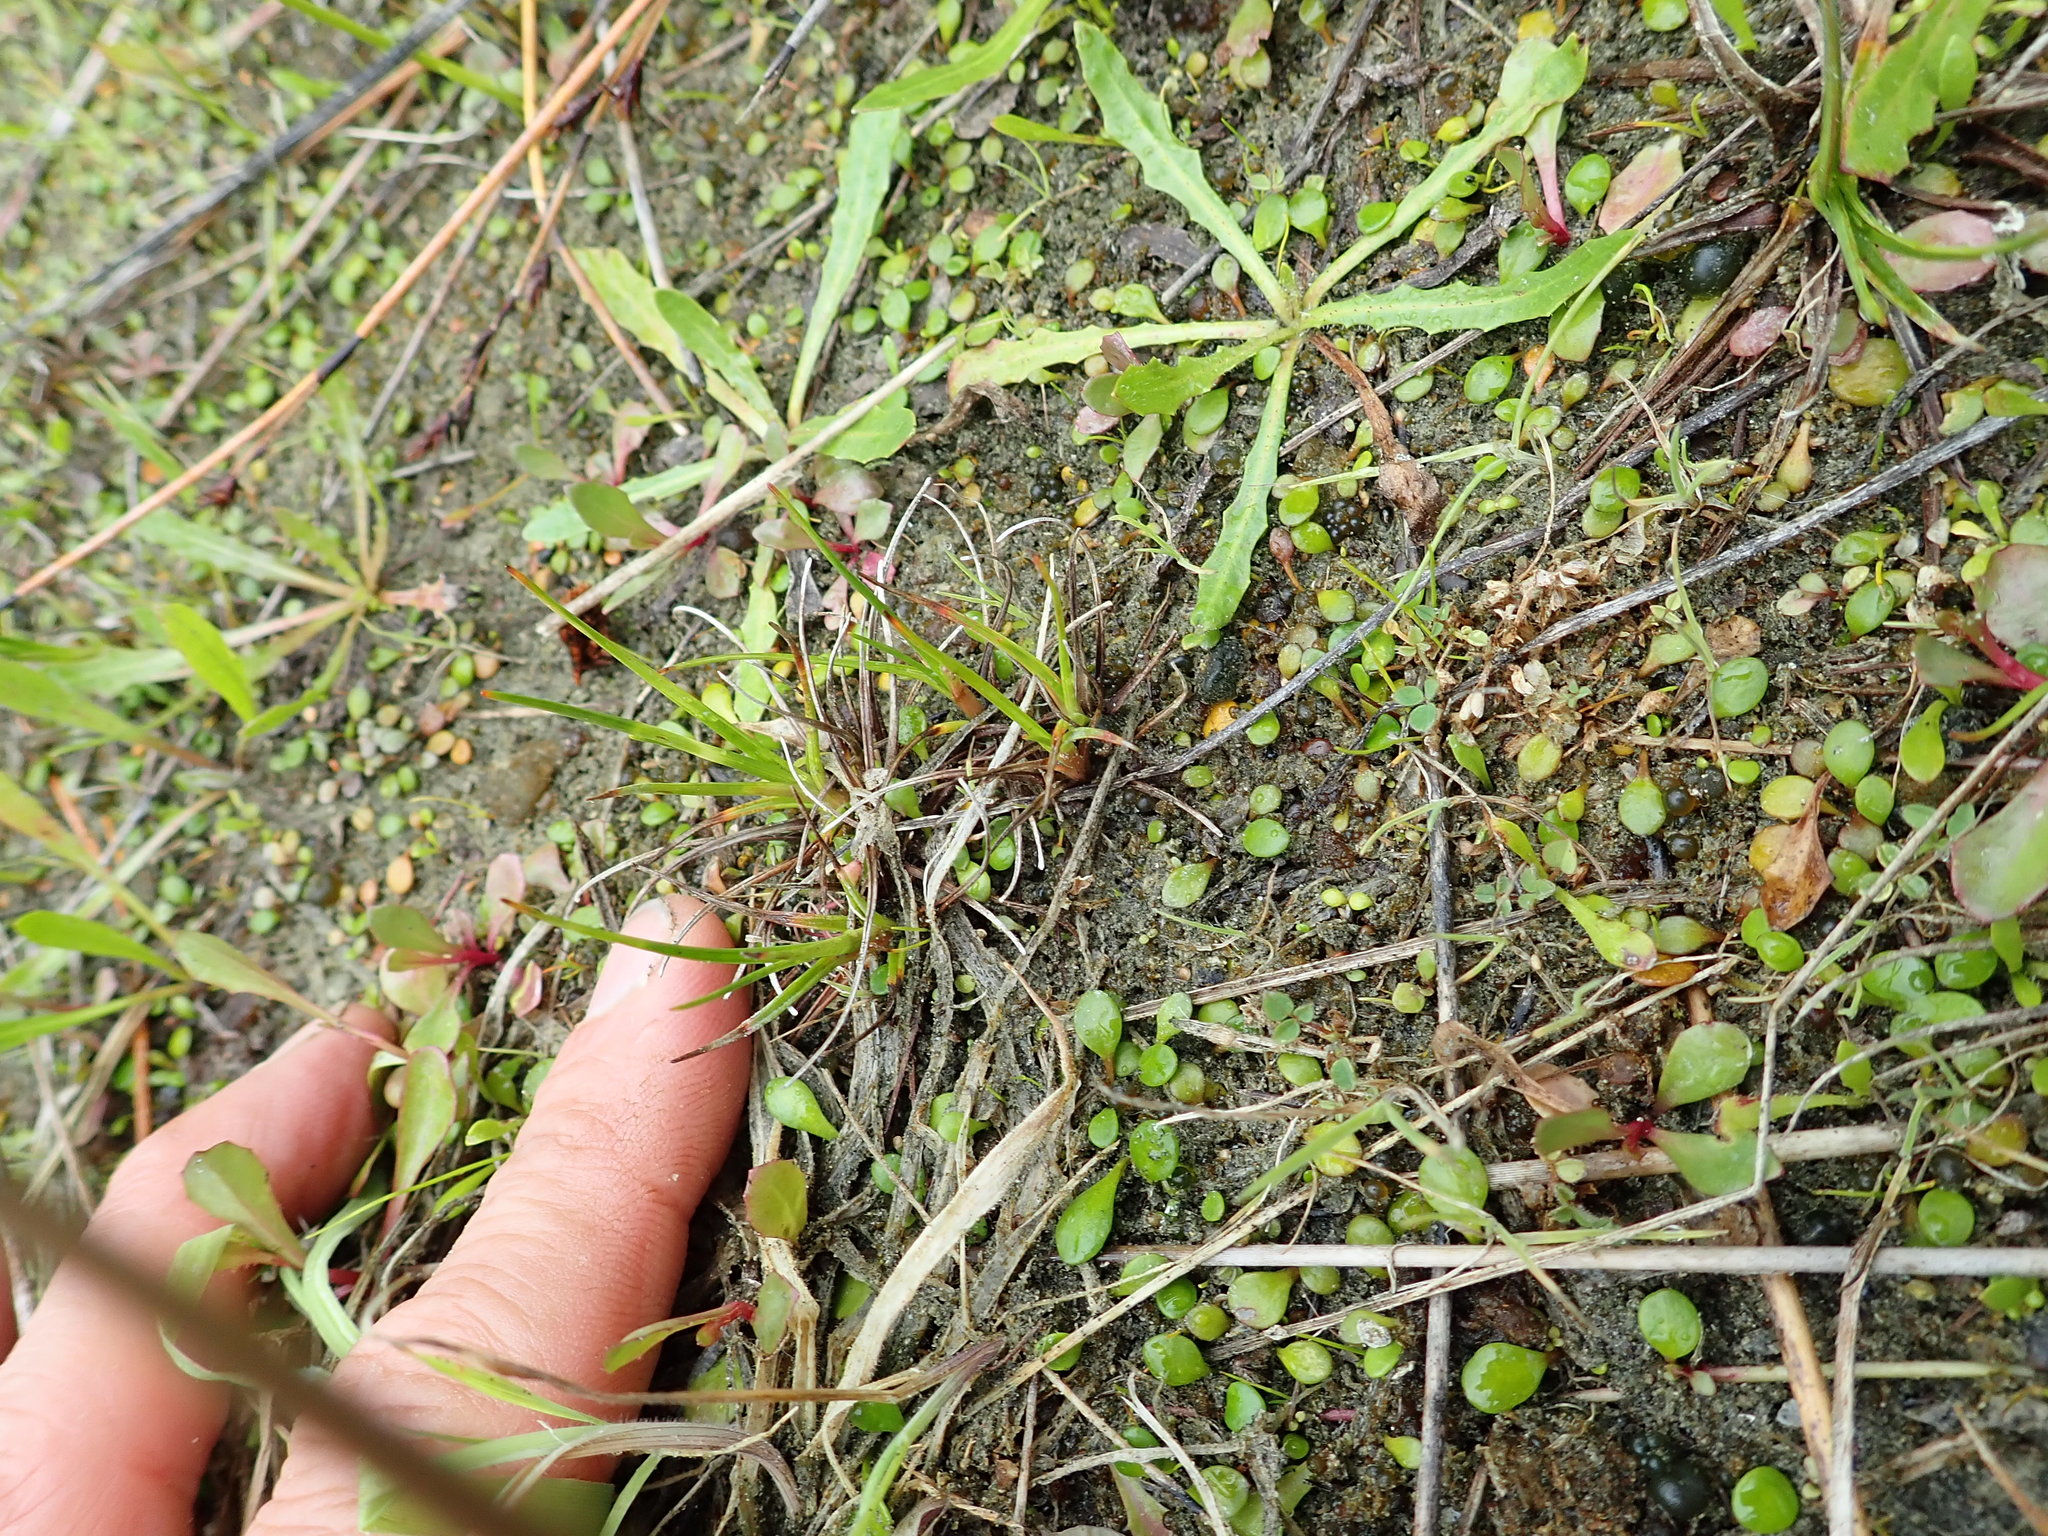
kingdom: Plantae
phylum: Tracheophyta
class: Liliopsida
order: Poales
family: Juncaceae
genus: Juncus
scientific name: Juncus caespiticius
